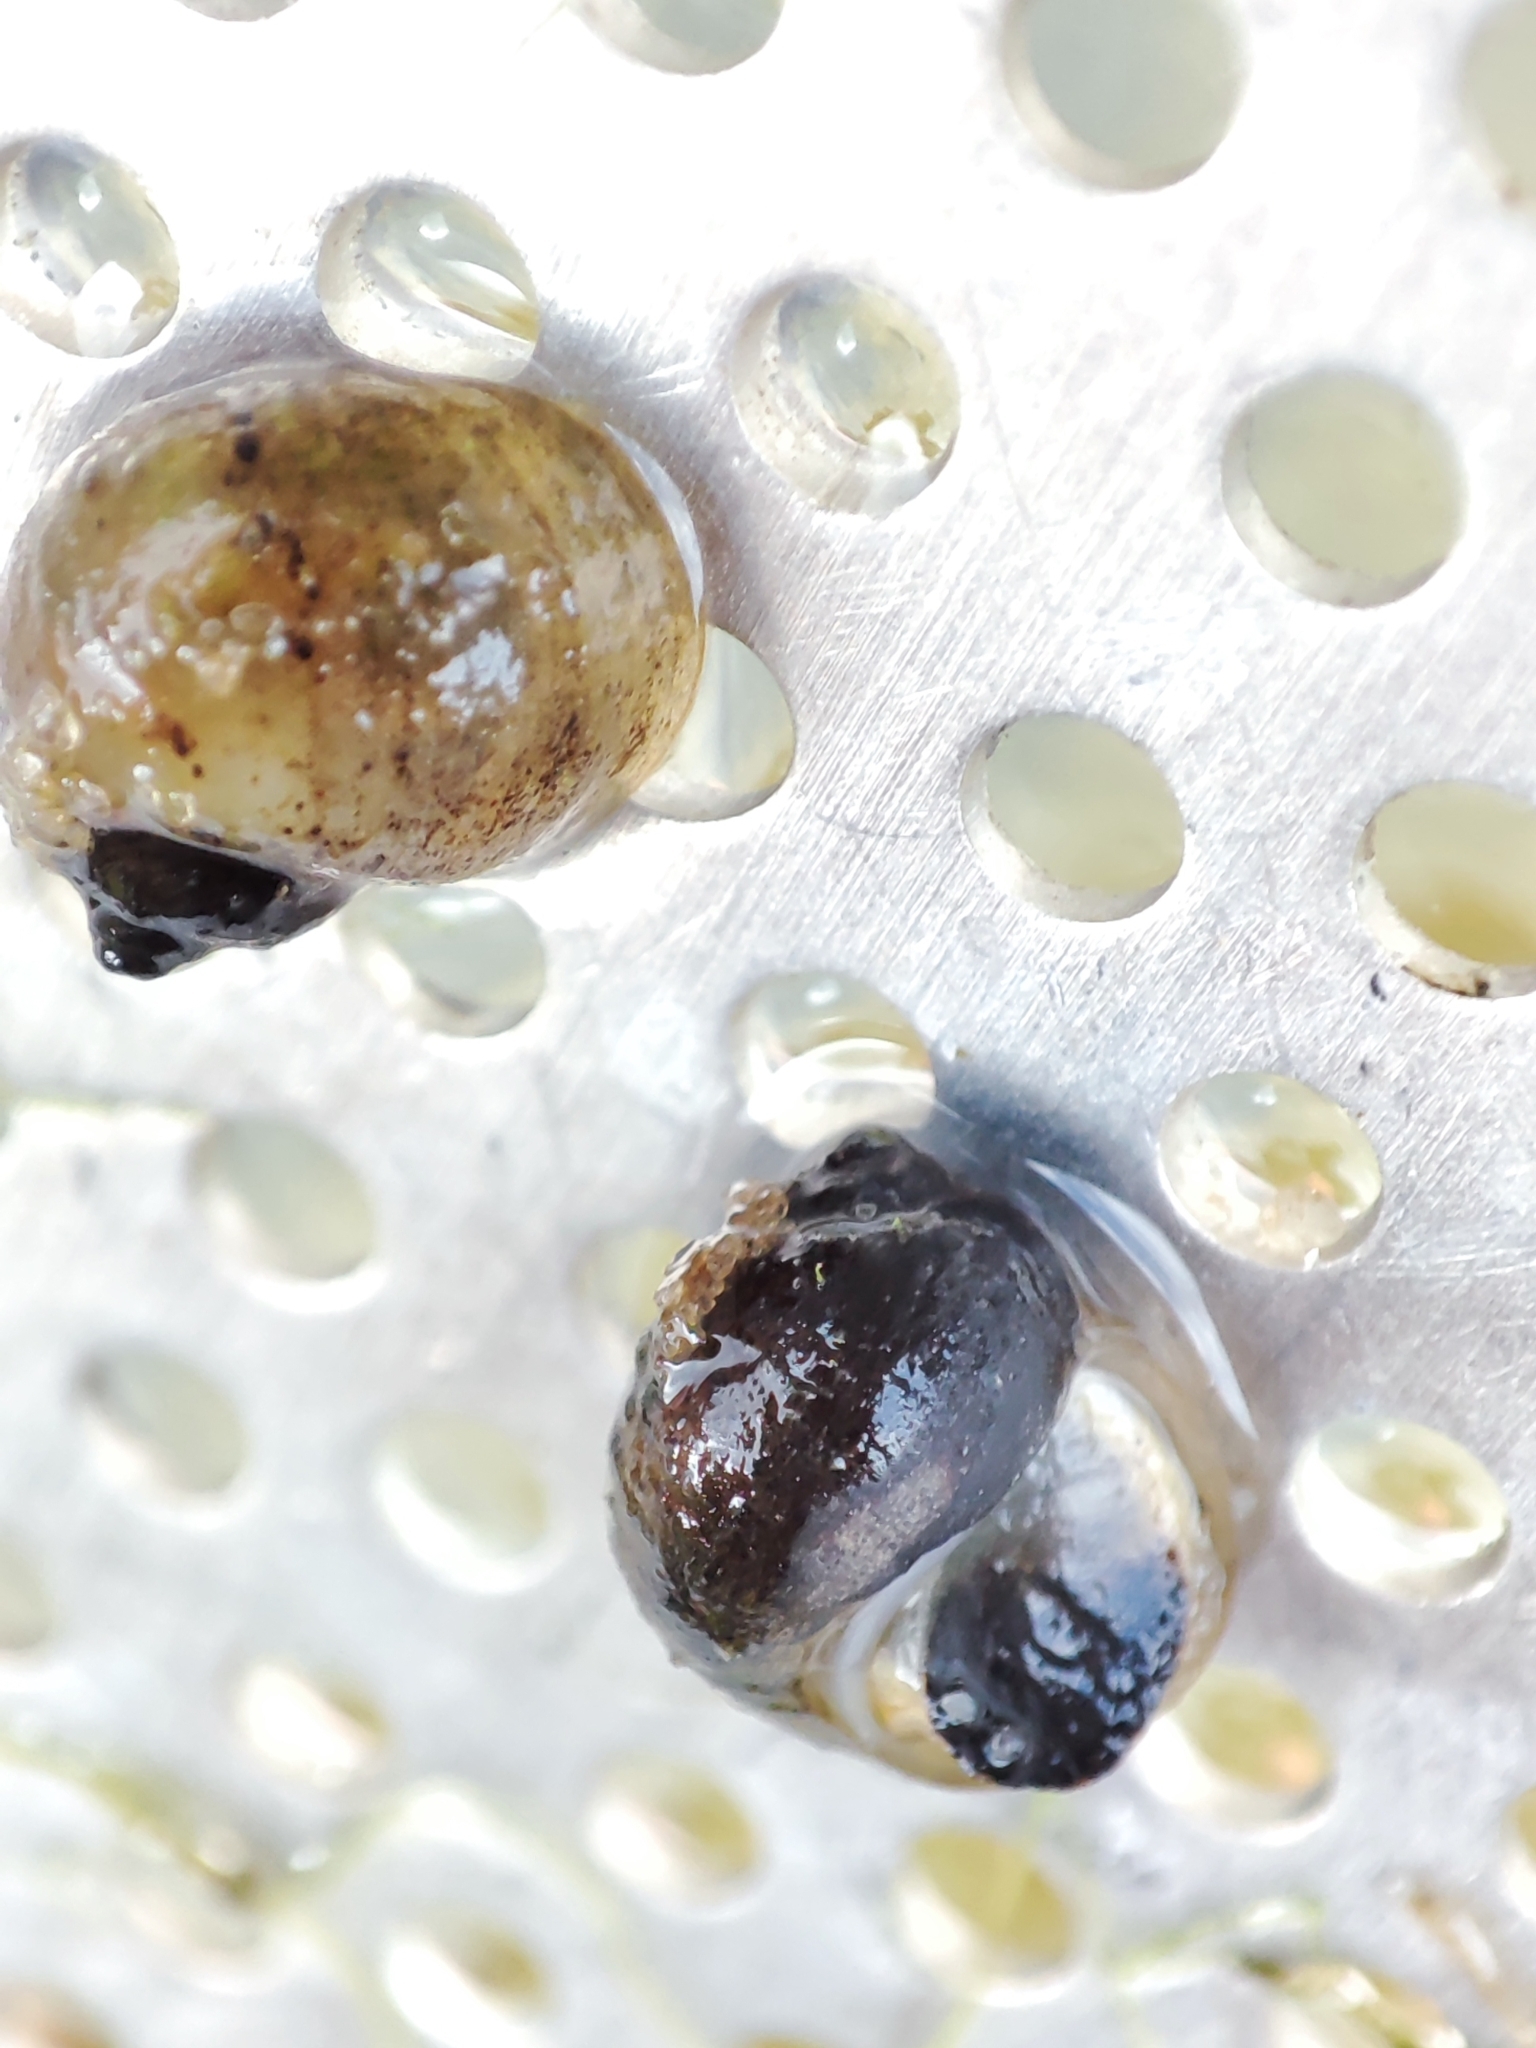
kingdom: Animalia
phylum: Mollusca
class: Gastropoda
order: Littorinimorpha
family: Lithoglyphidae
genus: Lithoglyphus
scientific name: Lithoglyphus naticoides
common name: Gravel snail
